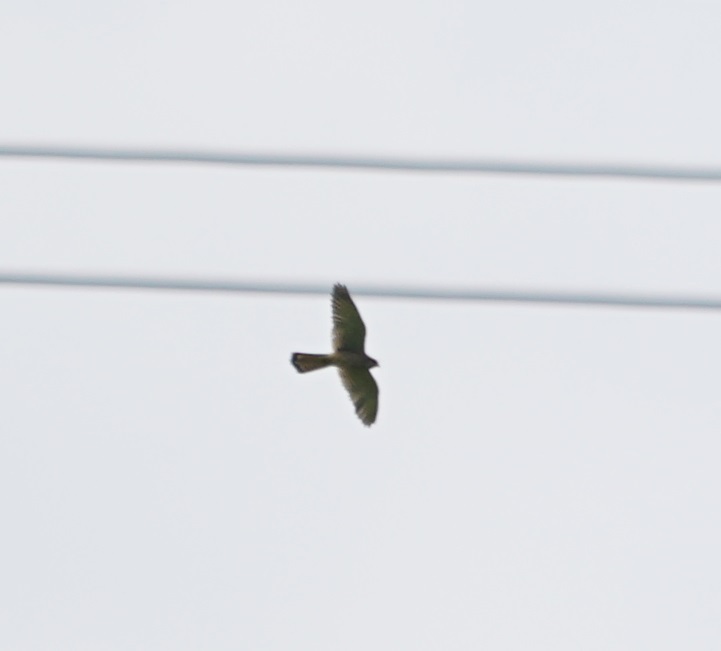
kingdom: Animalia
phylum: Chordata
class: Aves
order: Falconiformes
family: Falconidae
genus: Falco
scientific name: Falco tinnunculus
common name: Common kestrel
